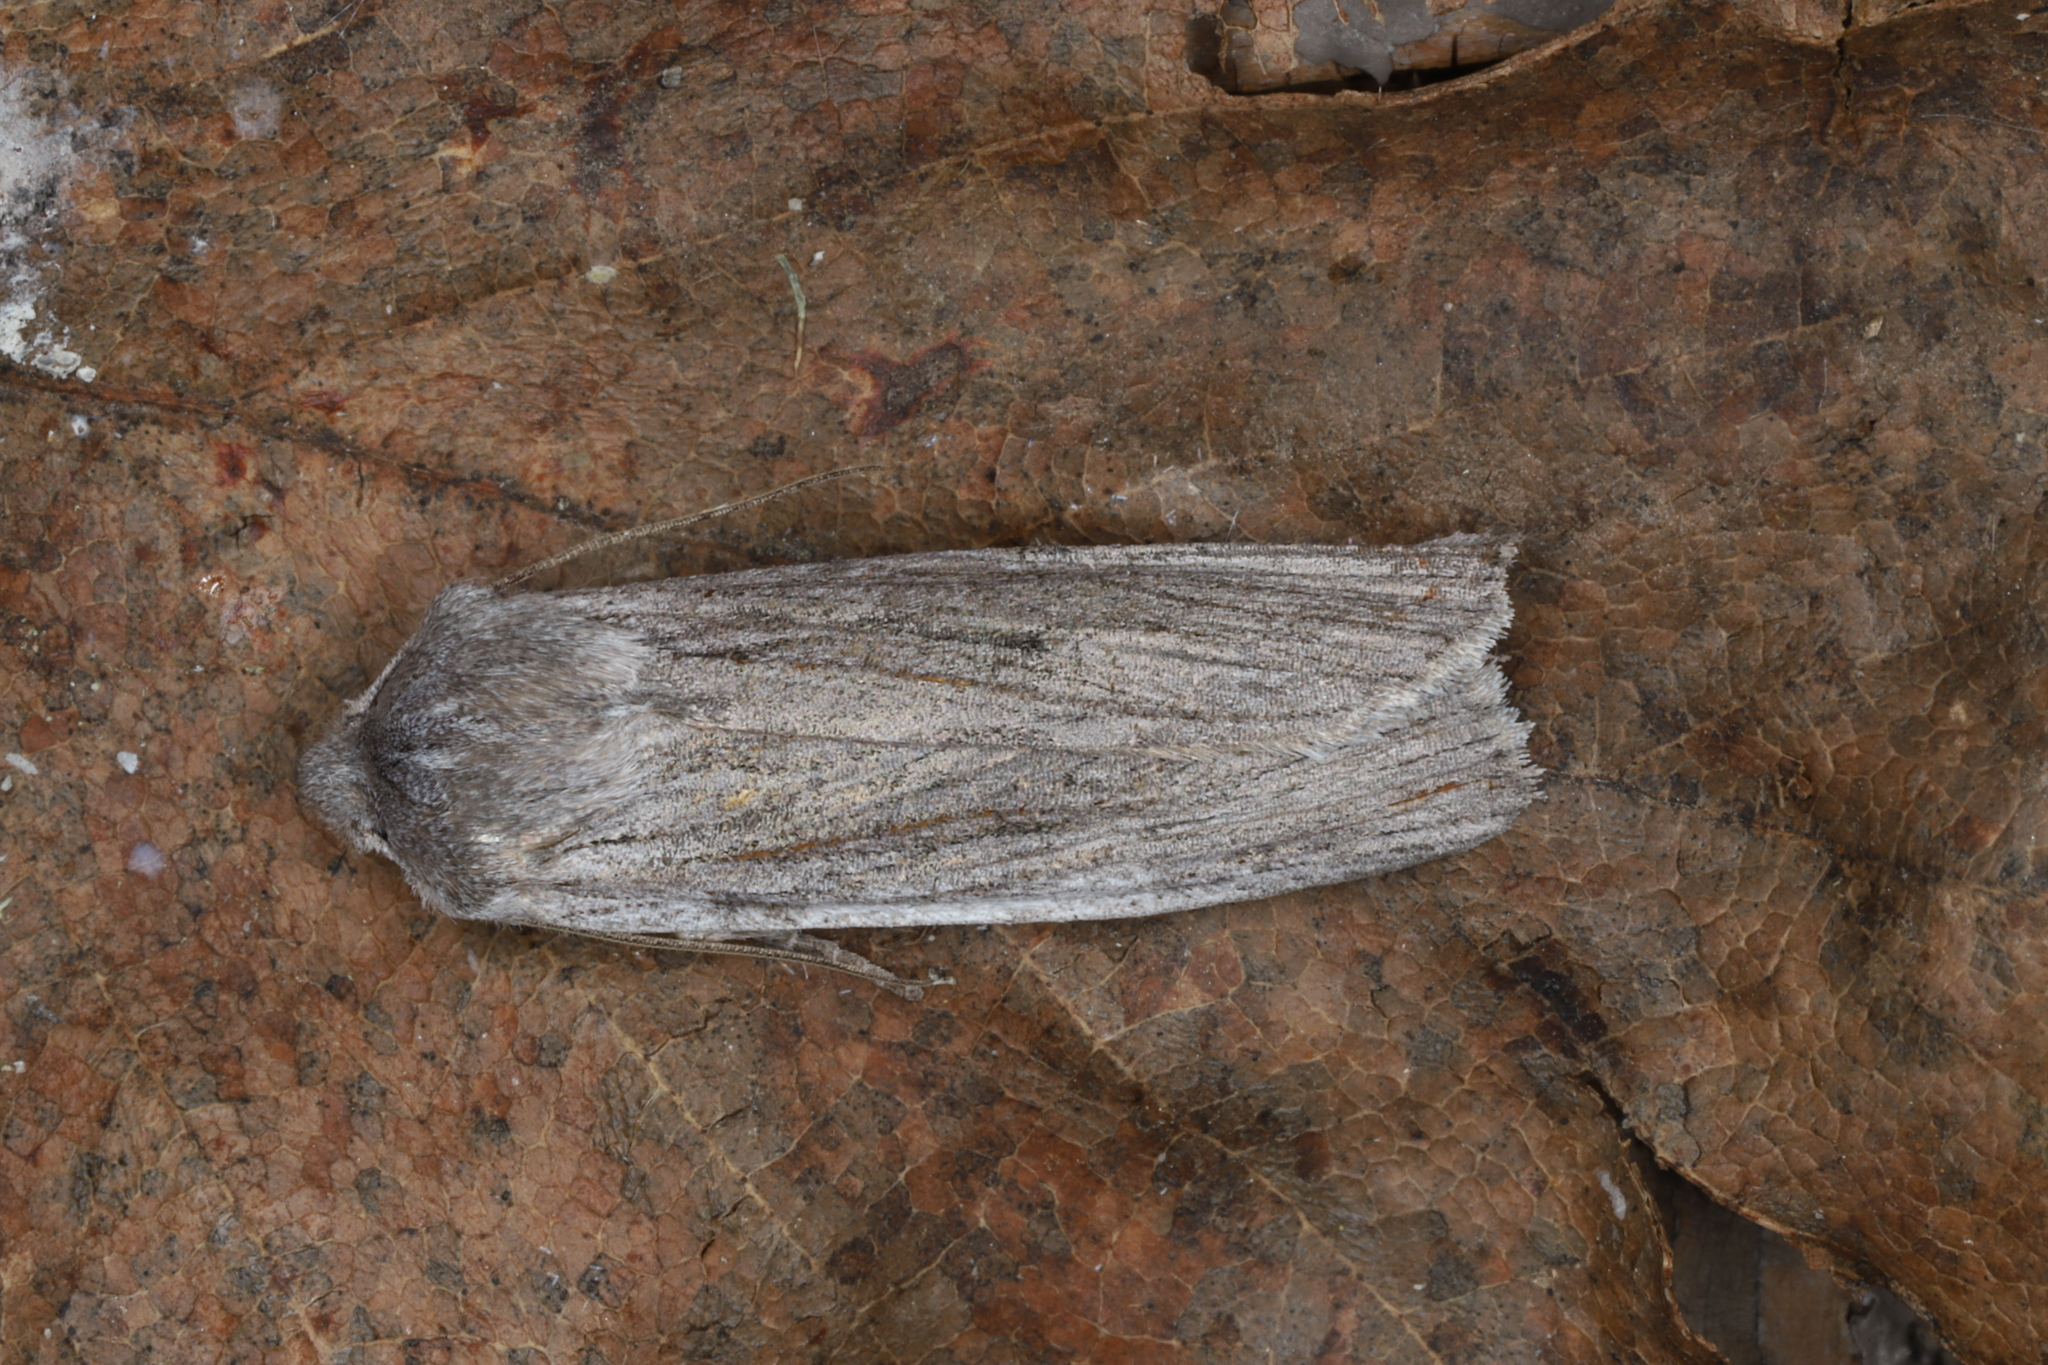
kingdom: Animalia
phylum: Arthropoda
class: Insecta
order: Lepidoptera
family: Noctuidae
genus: Lithophane
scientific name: Lithophane fagina
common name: Hoary pinion moth
